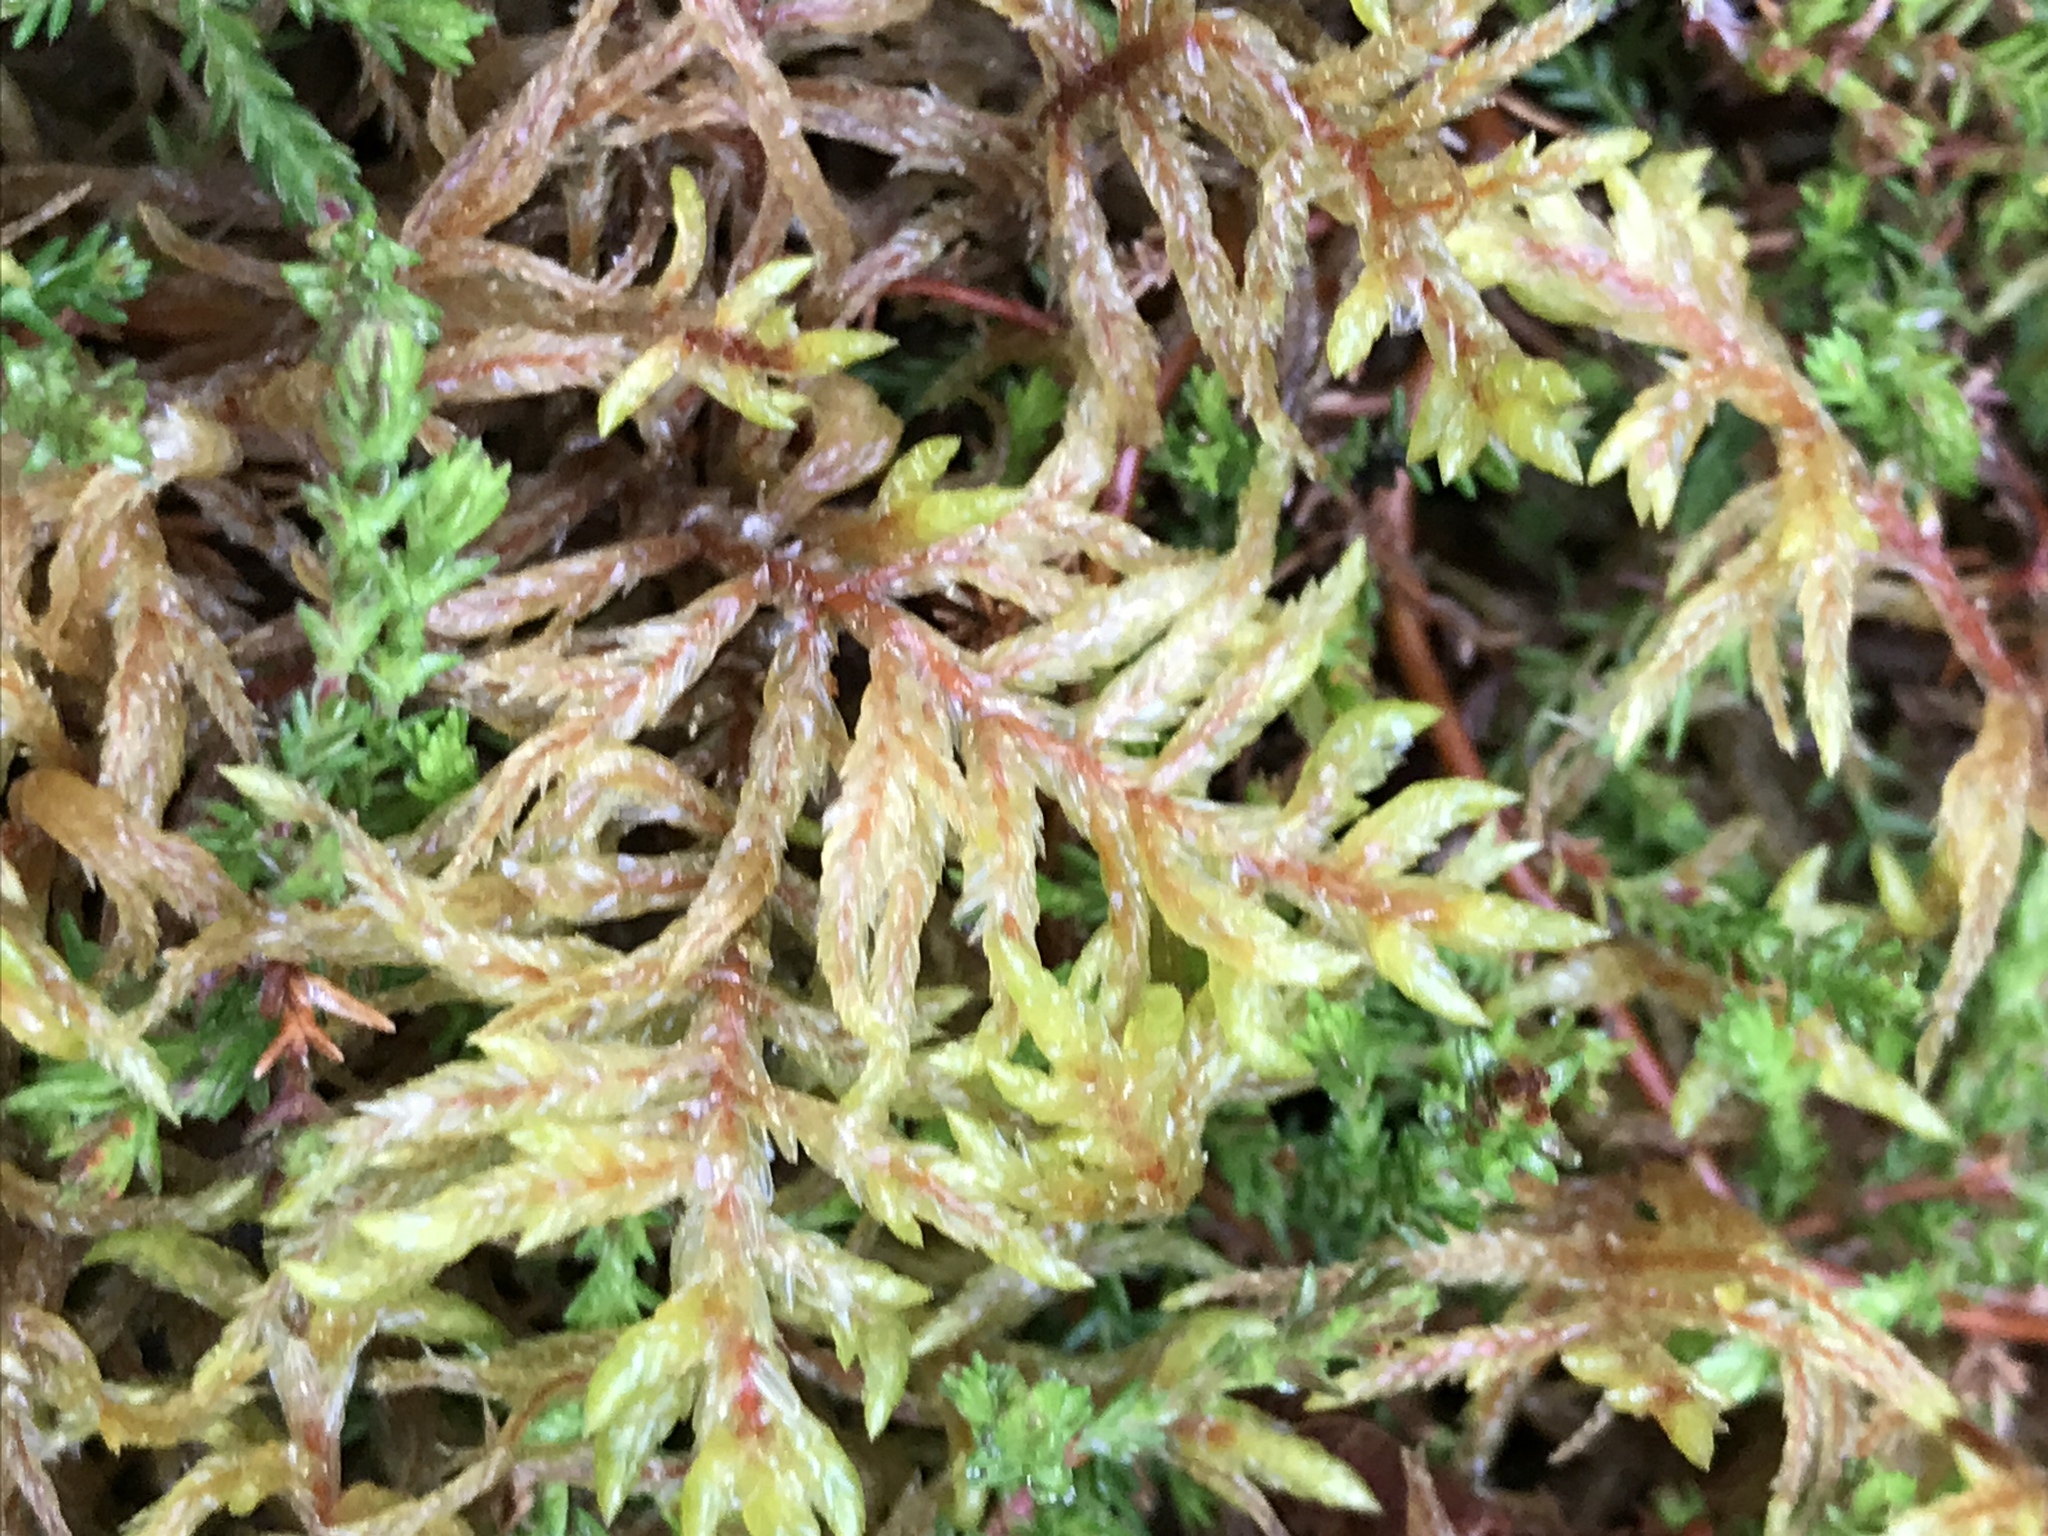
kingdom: Plantae
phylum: Bryophyta
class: Bryopsida
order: Hypnales
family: Hylocomiaceae
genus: Pleurozium
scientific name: Pleurozium schreberi
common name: Red-stemmed feather moss
